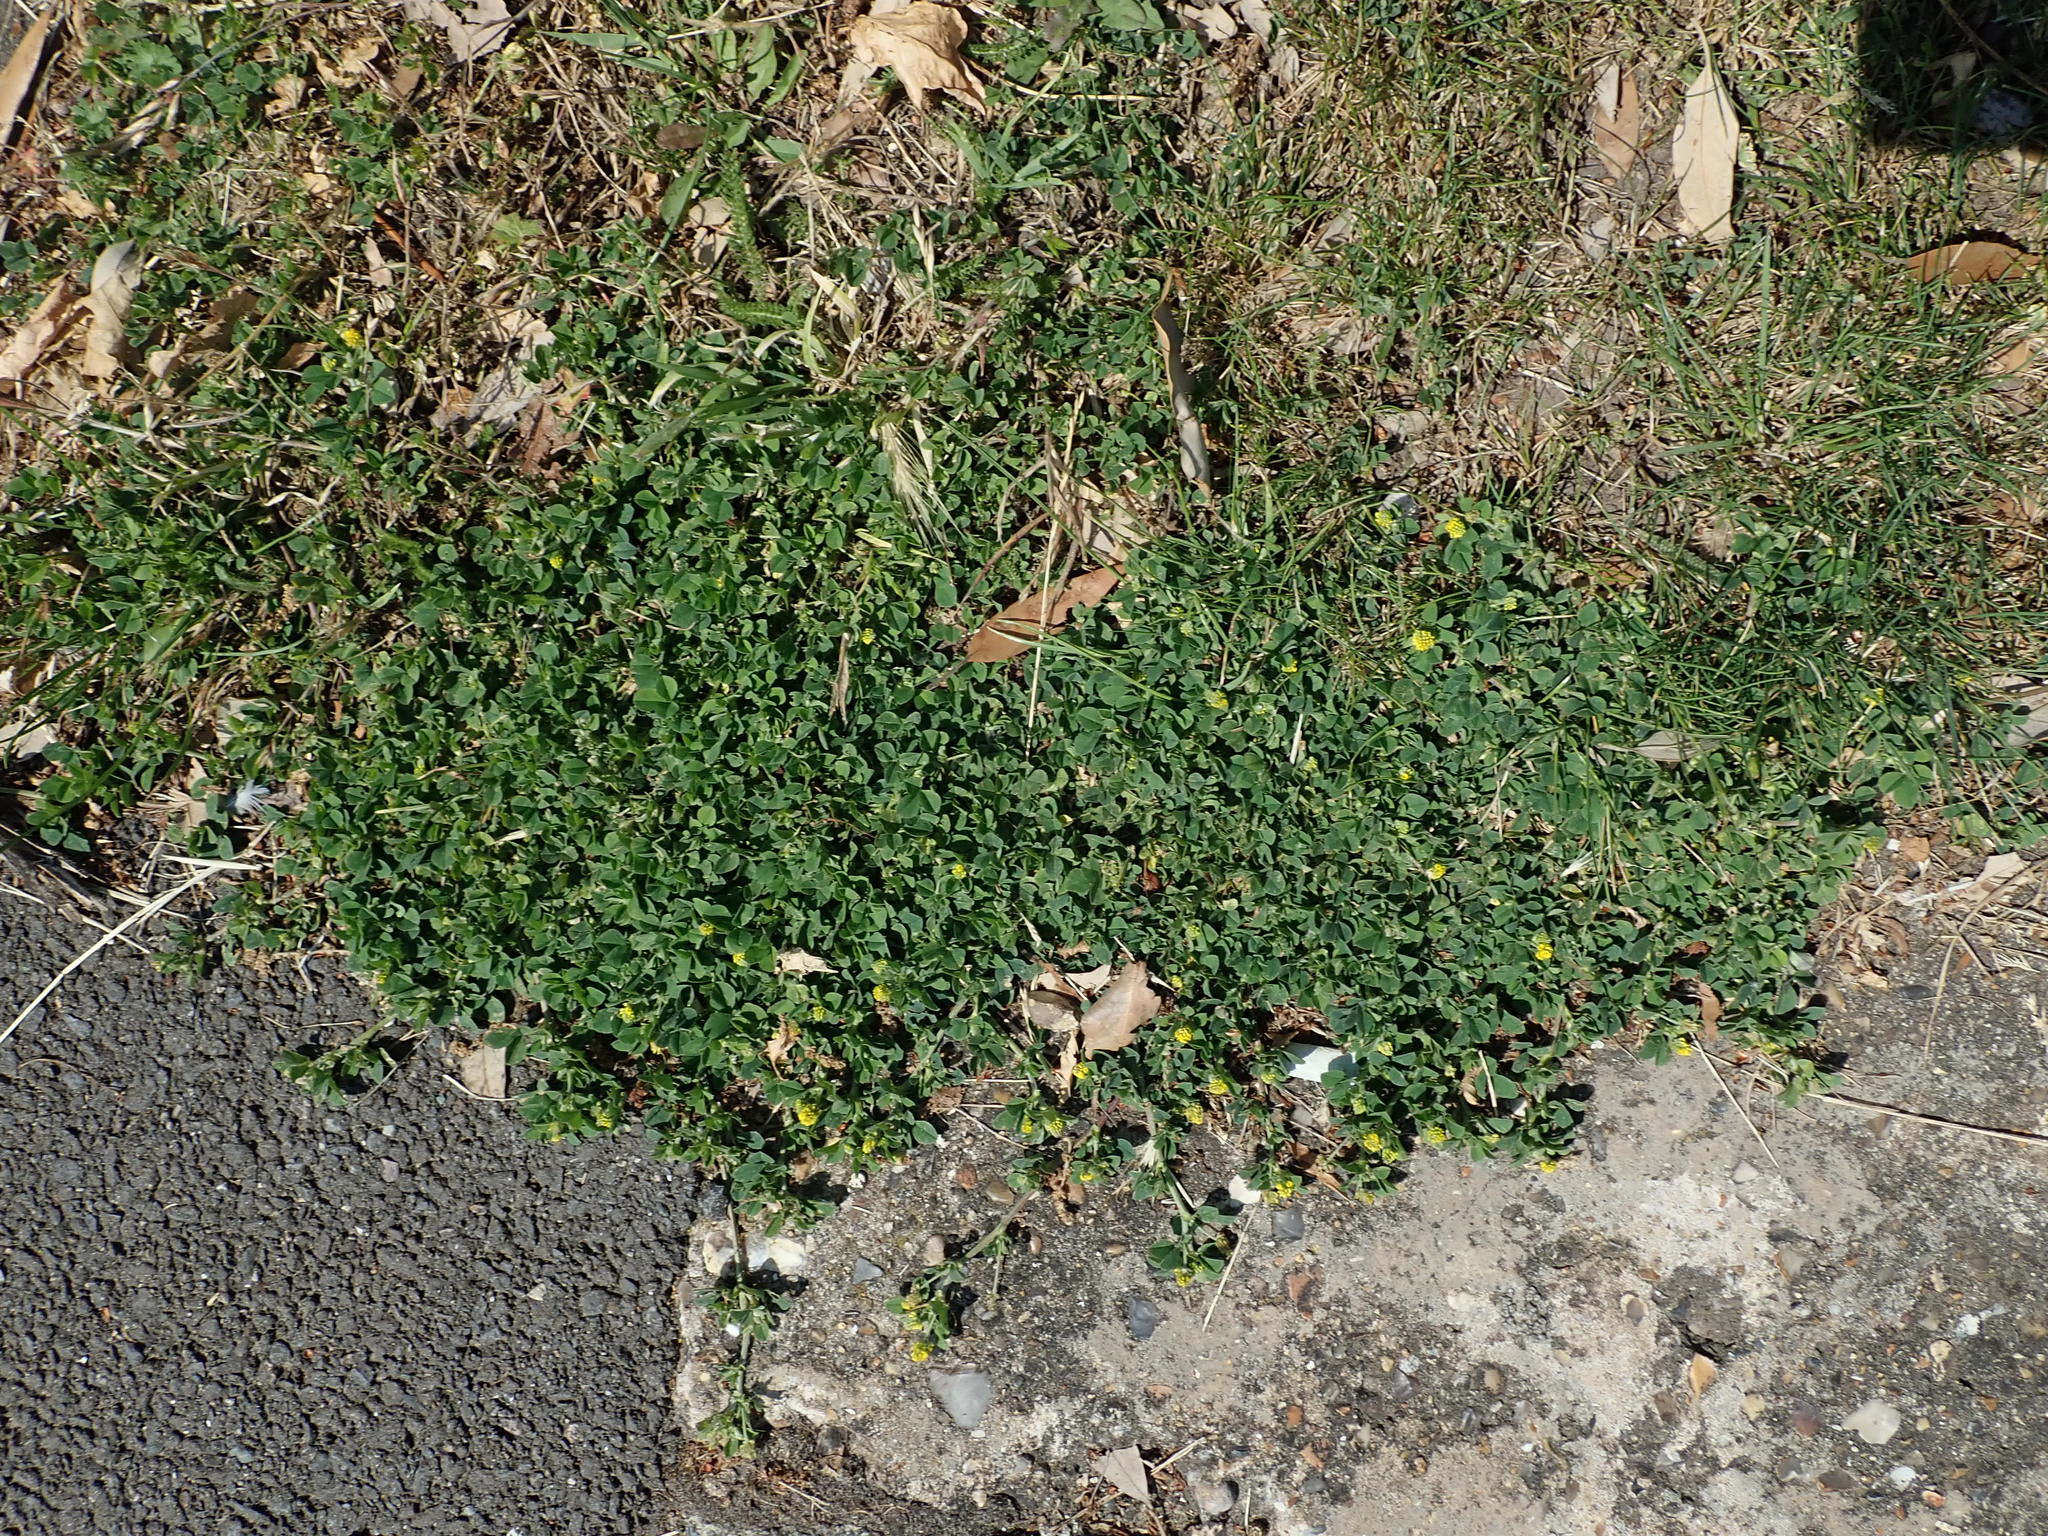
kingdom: Plantae
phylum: Tracheophyta
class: Magnoliopsida
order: Fabales
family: Fabaceae
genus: Medicago
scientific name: Medicago lupulina
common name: Black medick
